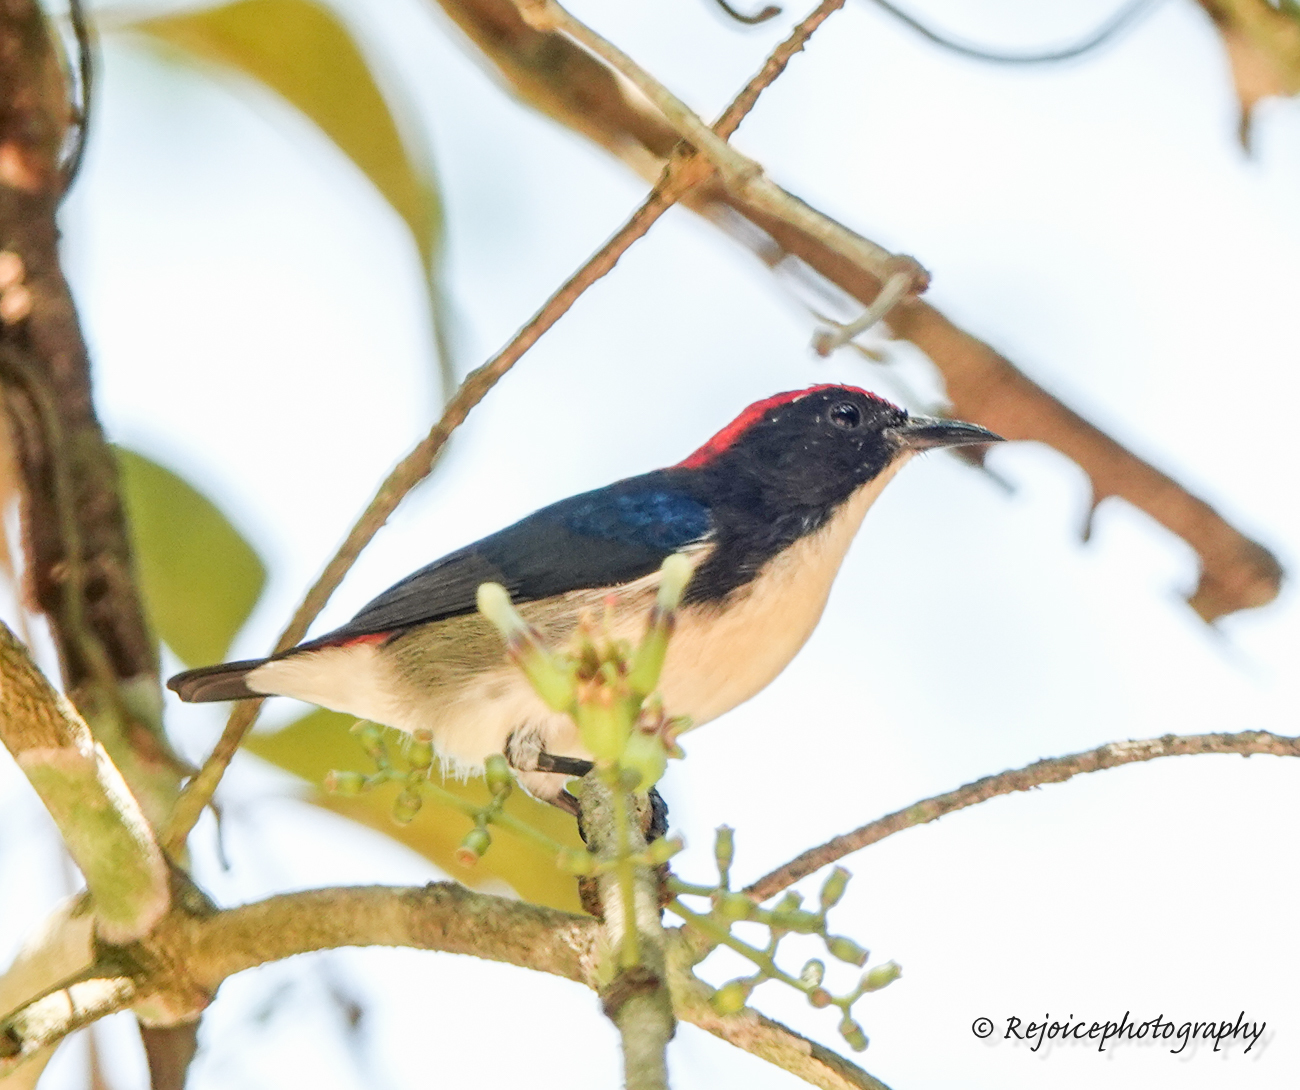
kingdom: Animalia
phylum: Chordata
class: Aves
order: Passeriformes
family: Dicaeidae
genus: Dicaeum
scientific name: Dicaeum cruentatum
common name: Scarlet-backed flowerpecker
